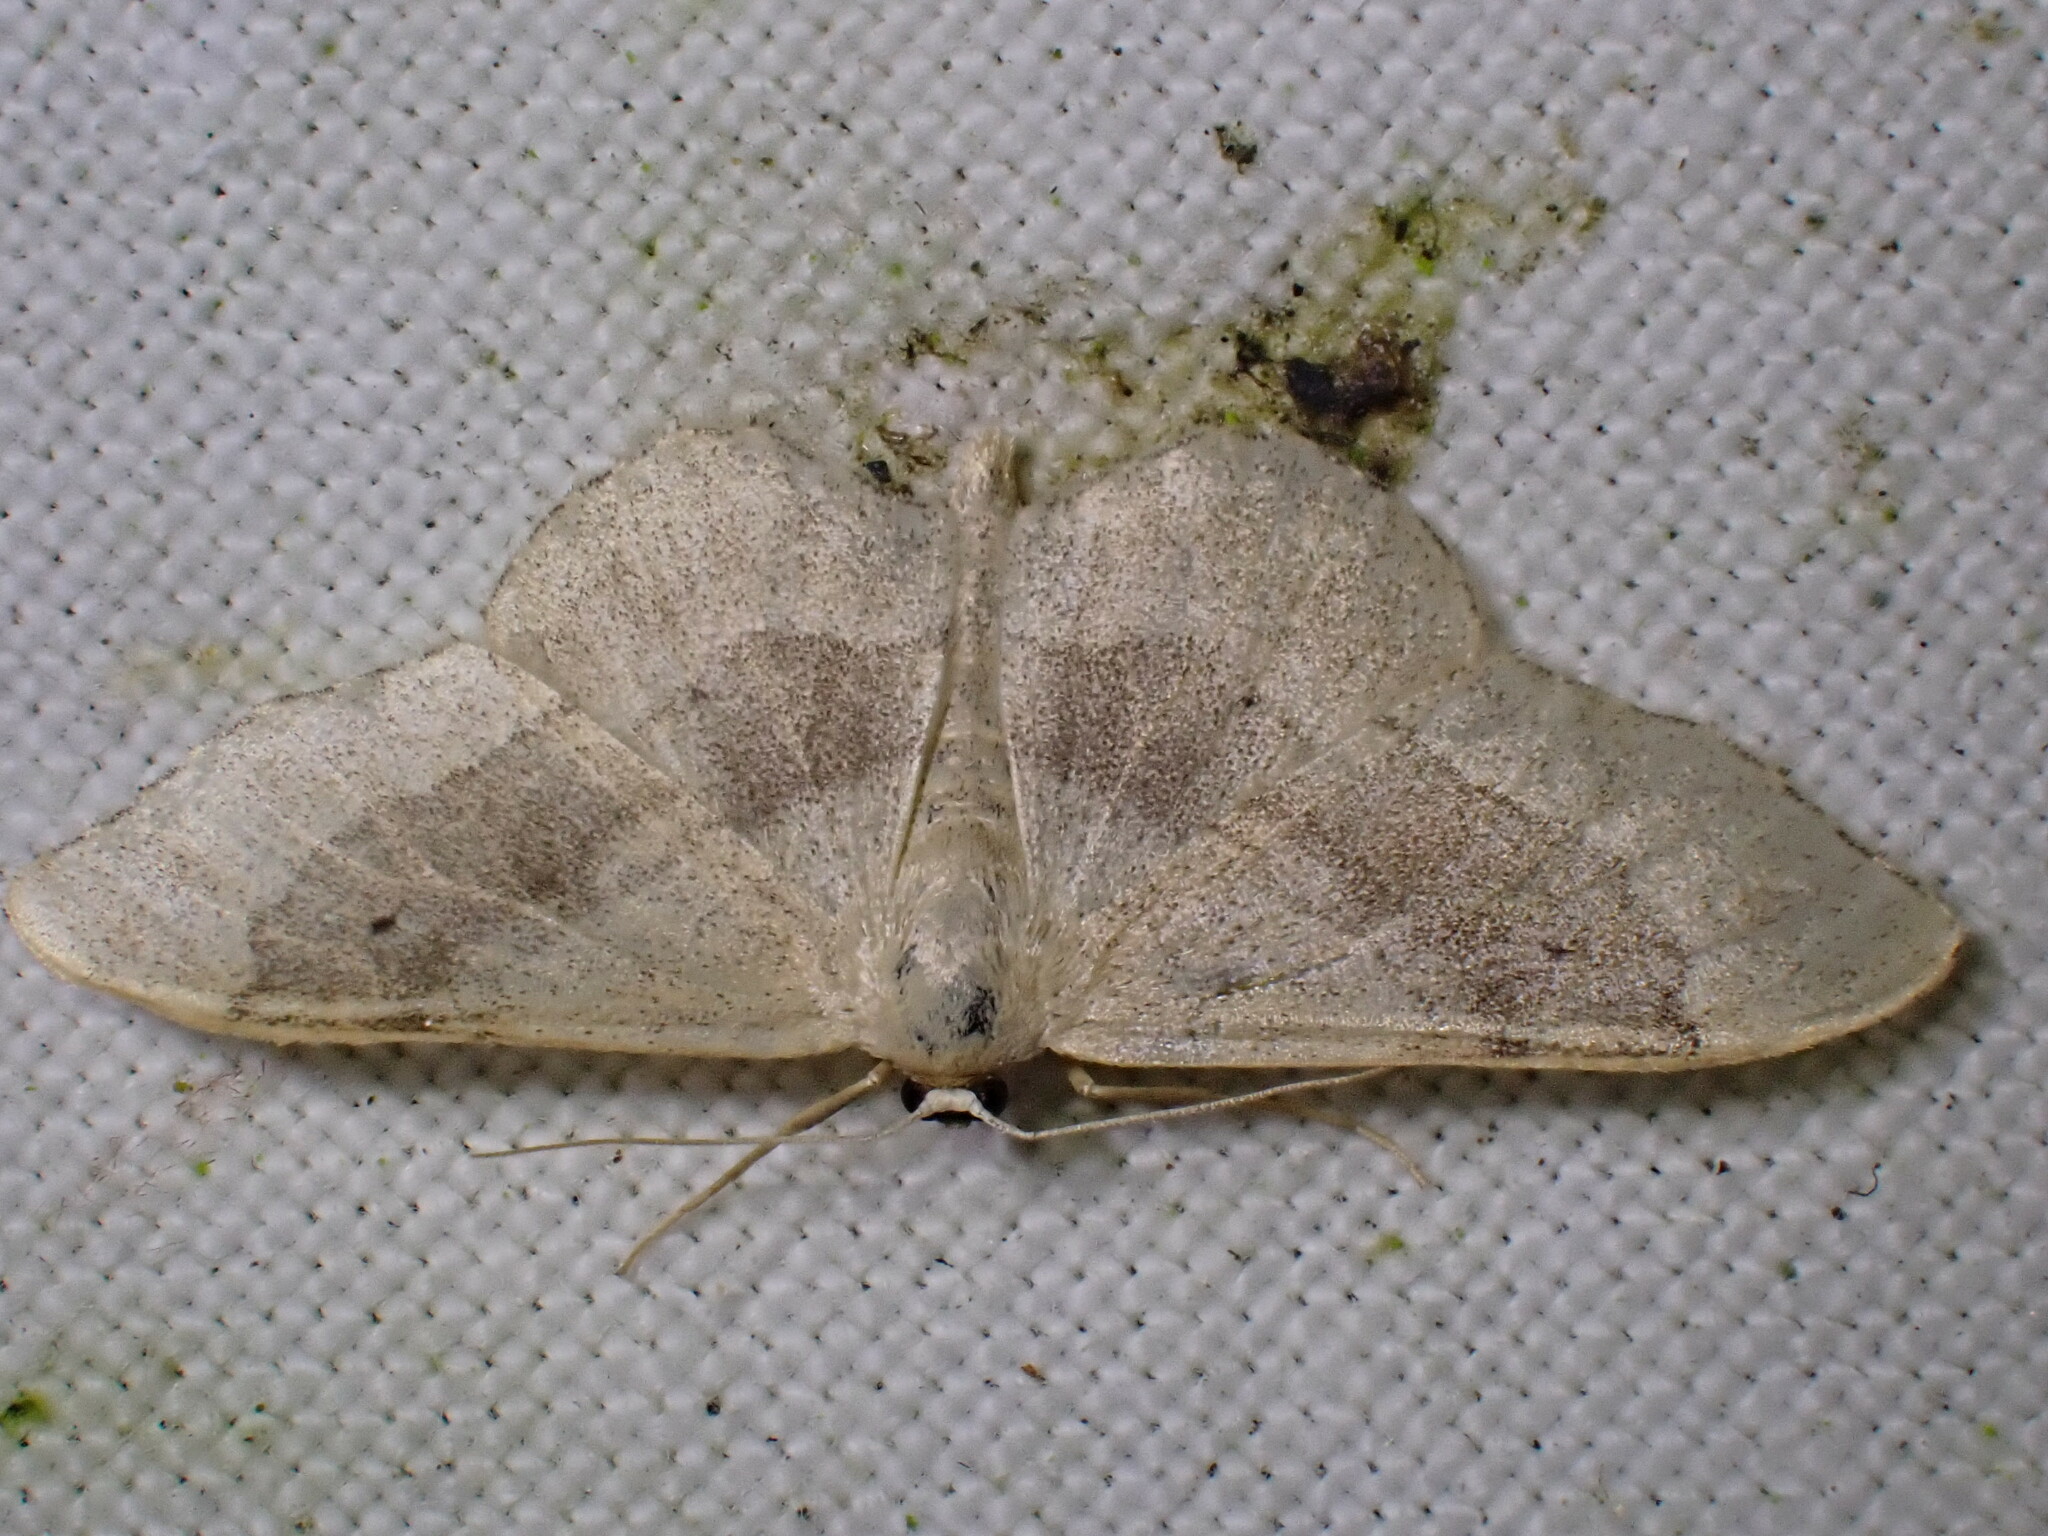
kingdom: Animalia
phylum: Arthropoda
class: Insecta
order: Lepidoptera
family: Geometridae
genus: Idaea
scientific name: Idaea aversata
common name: Riband wave
